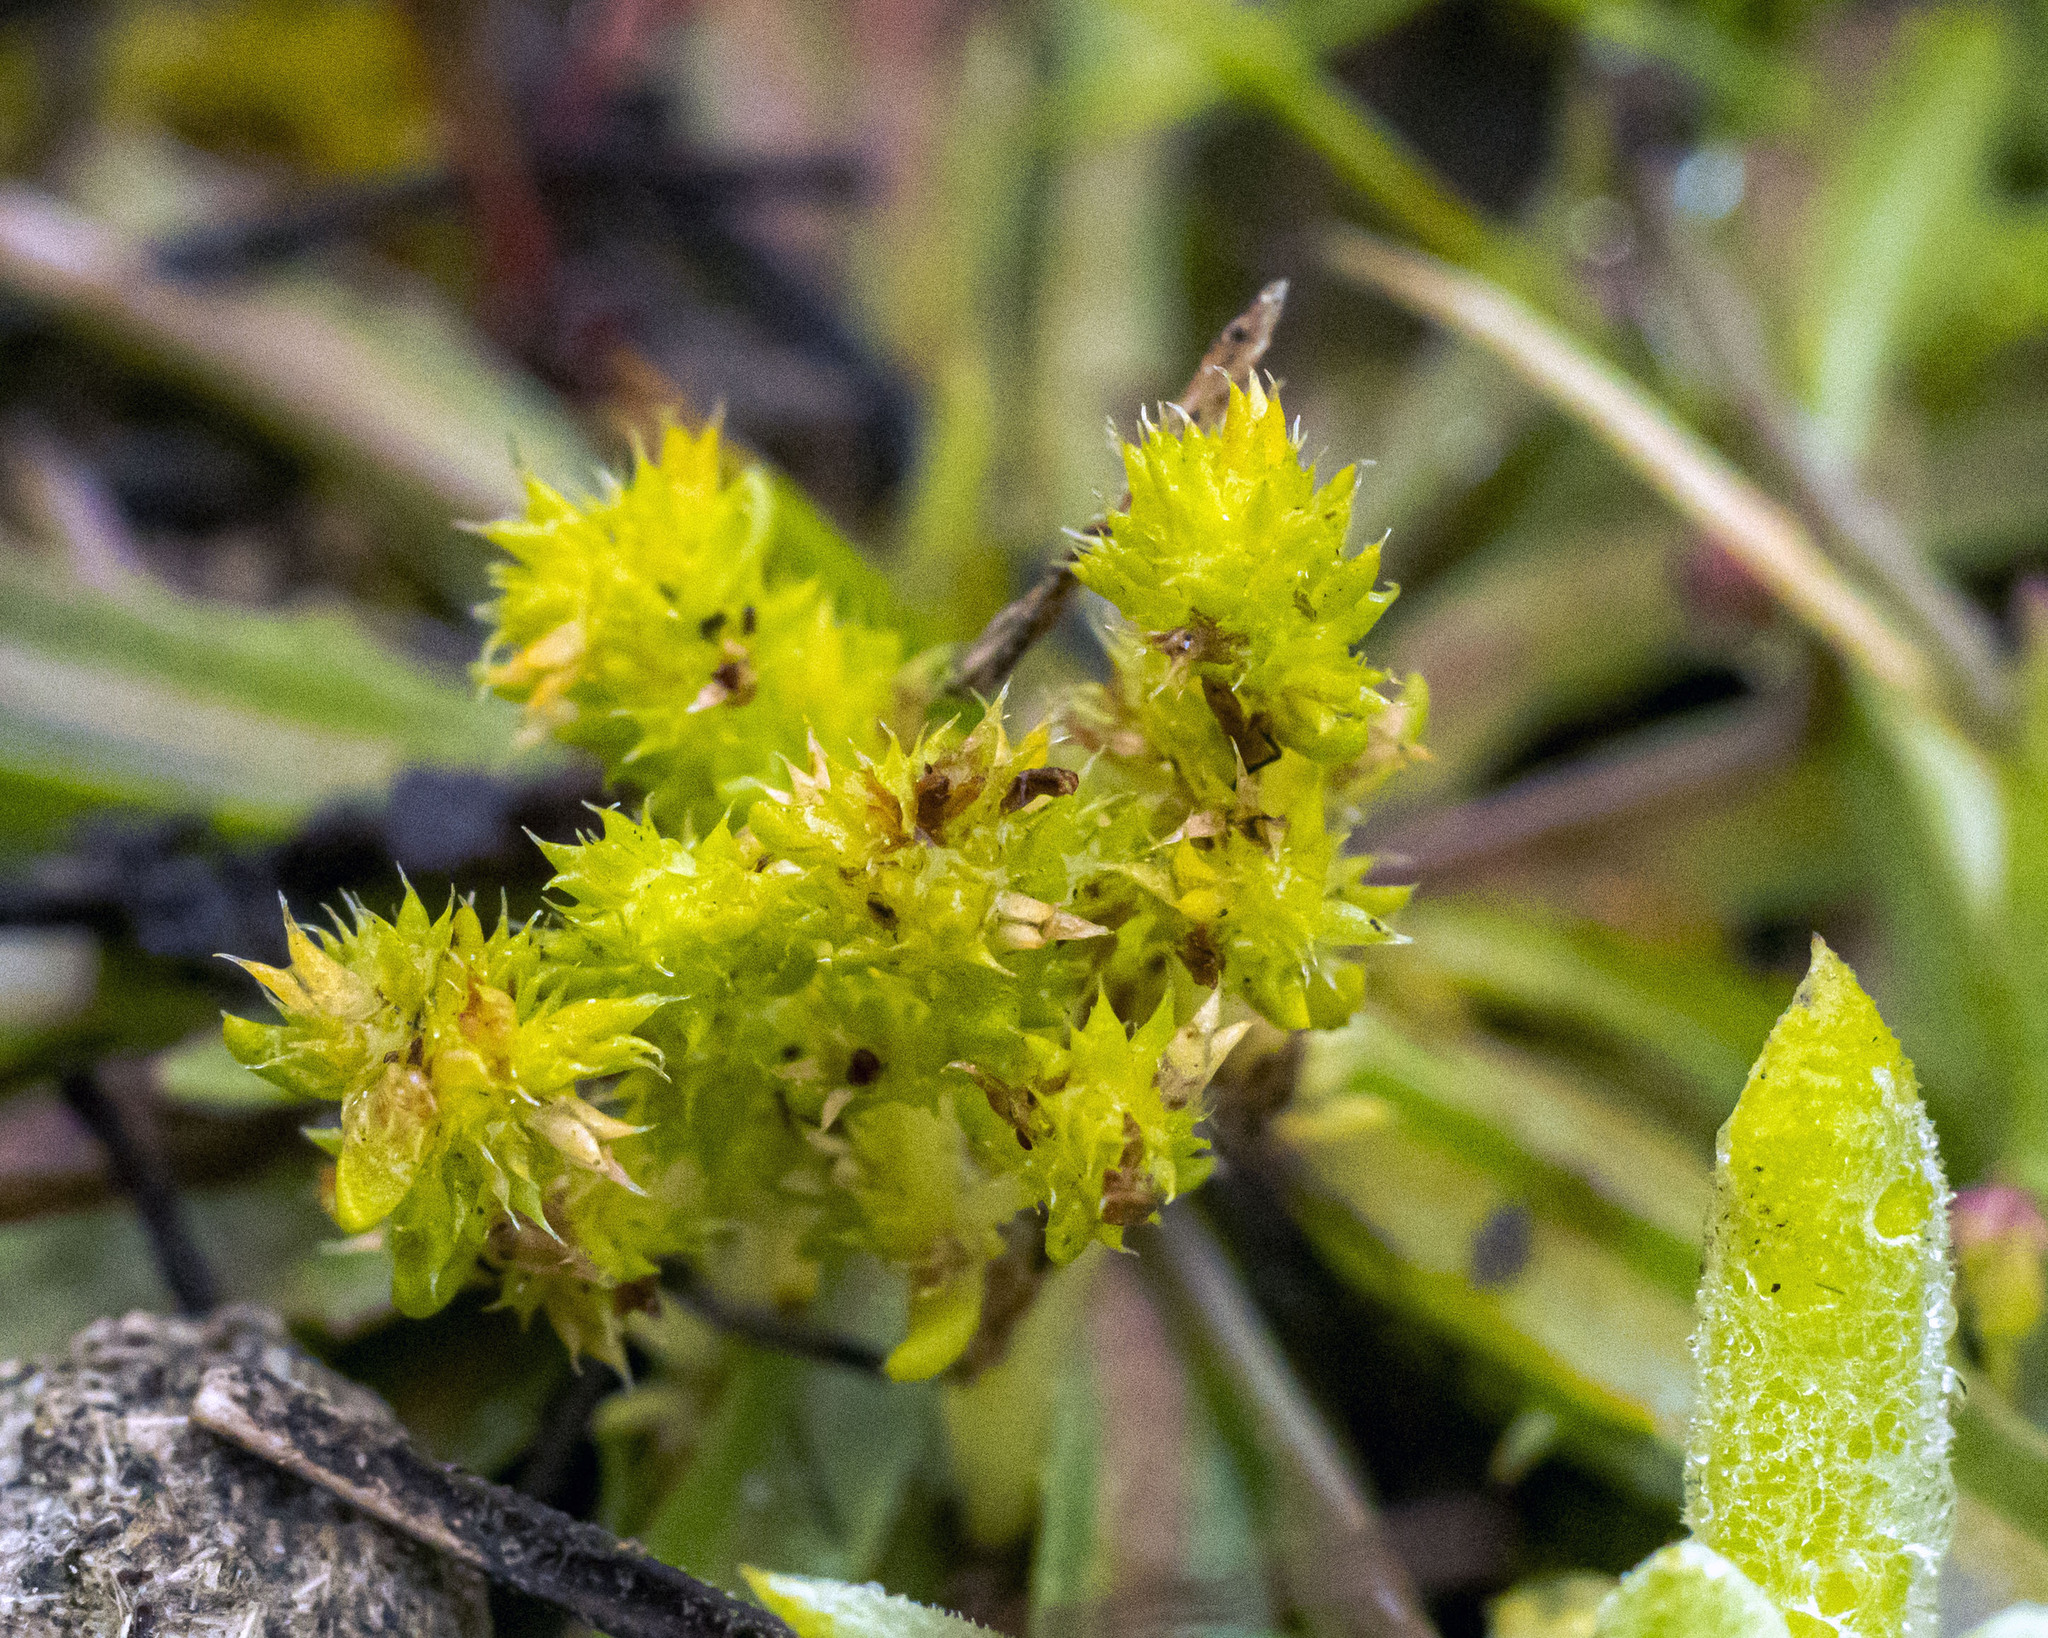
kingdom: Plantae
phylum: Tracheophyta
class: Magnoliopsida
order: Saxifragales
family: Crassulaceae
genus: Crassula
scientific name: Crassula tillaea
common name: Mossy stonecrop
